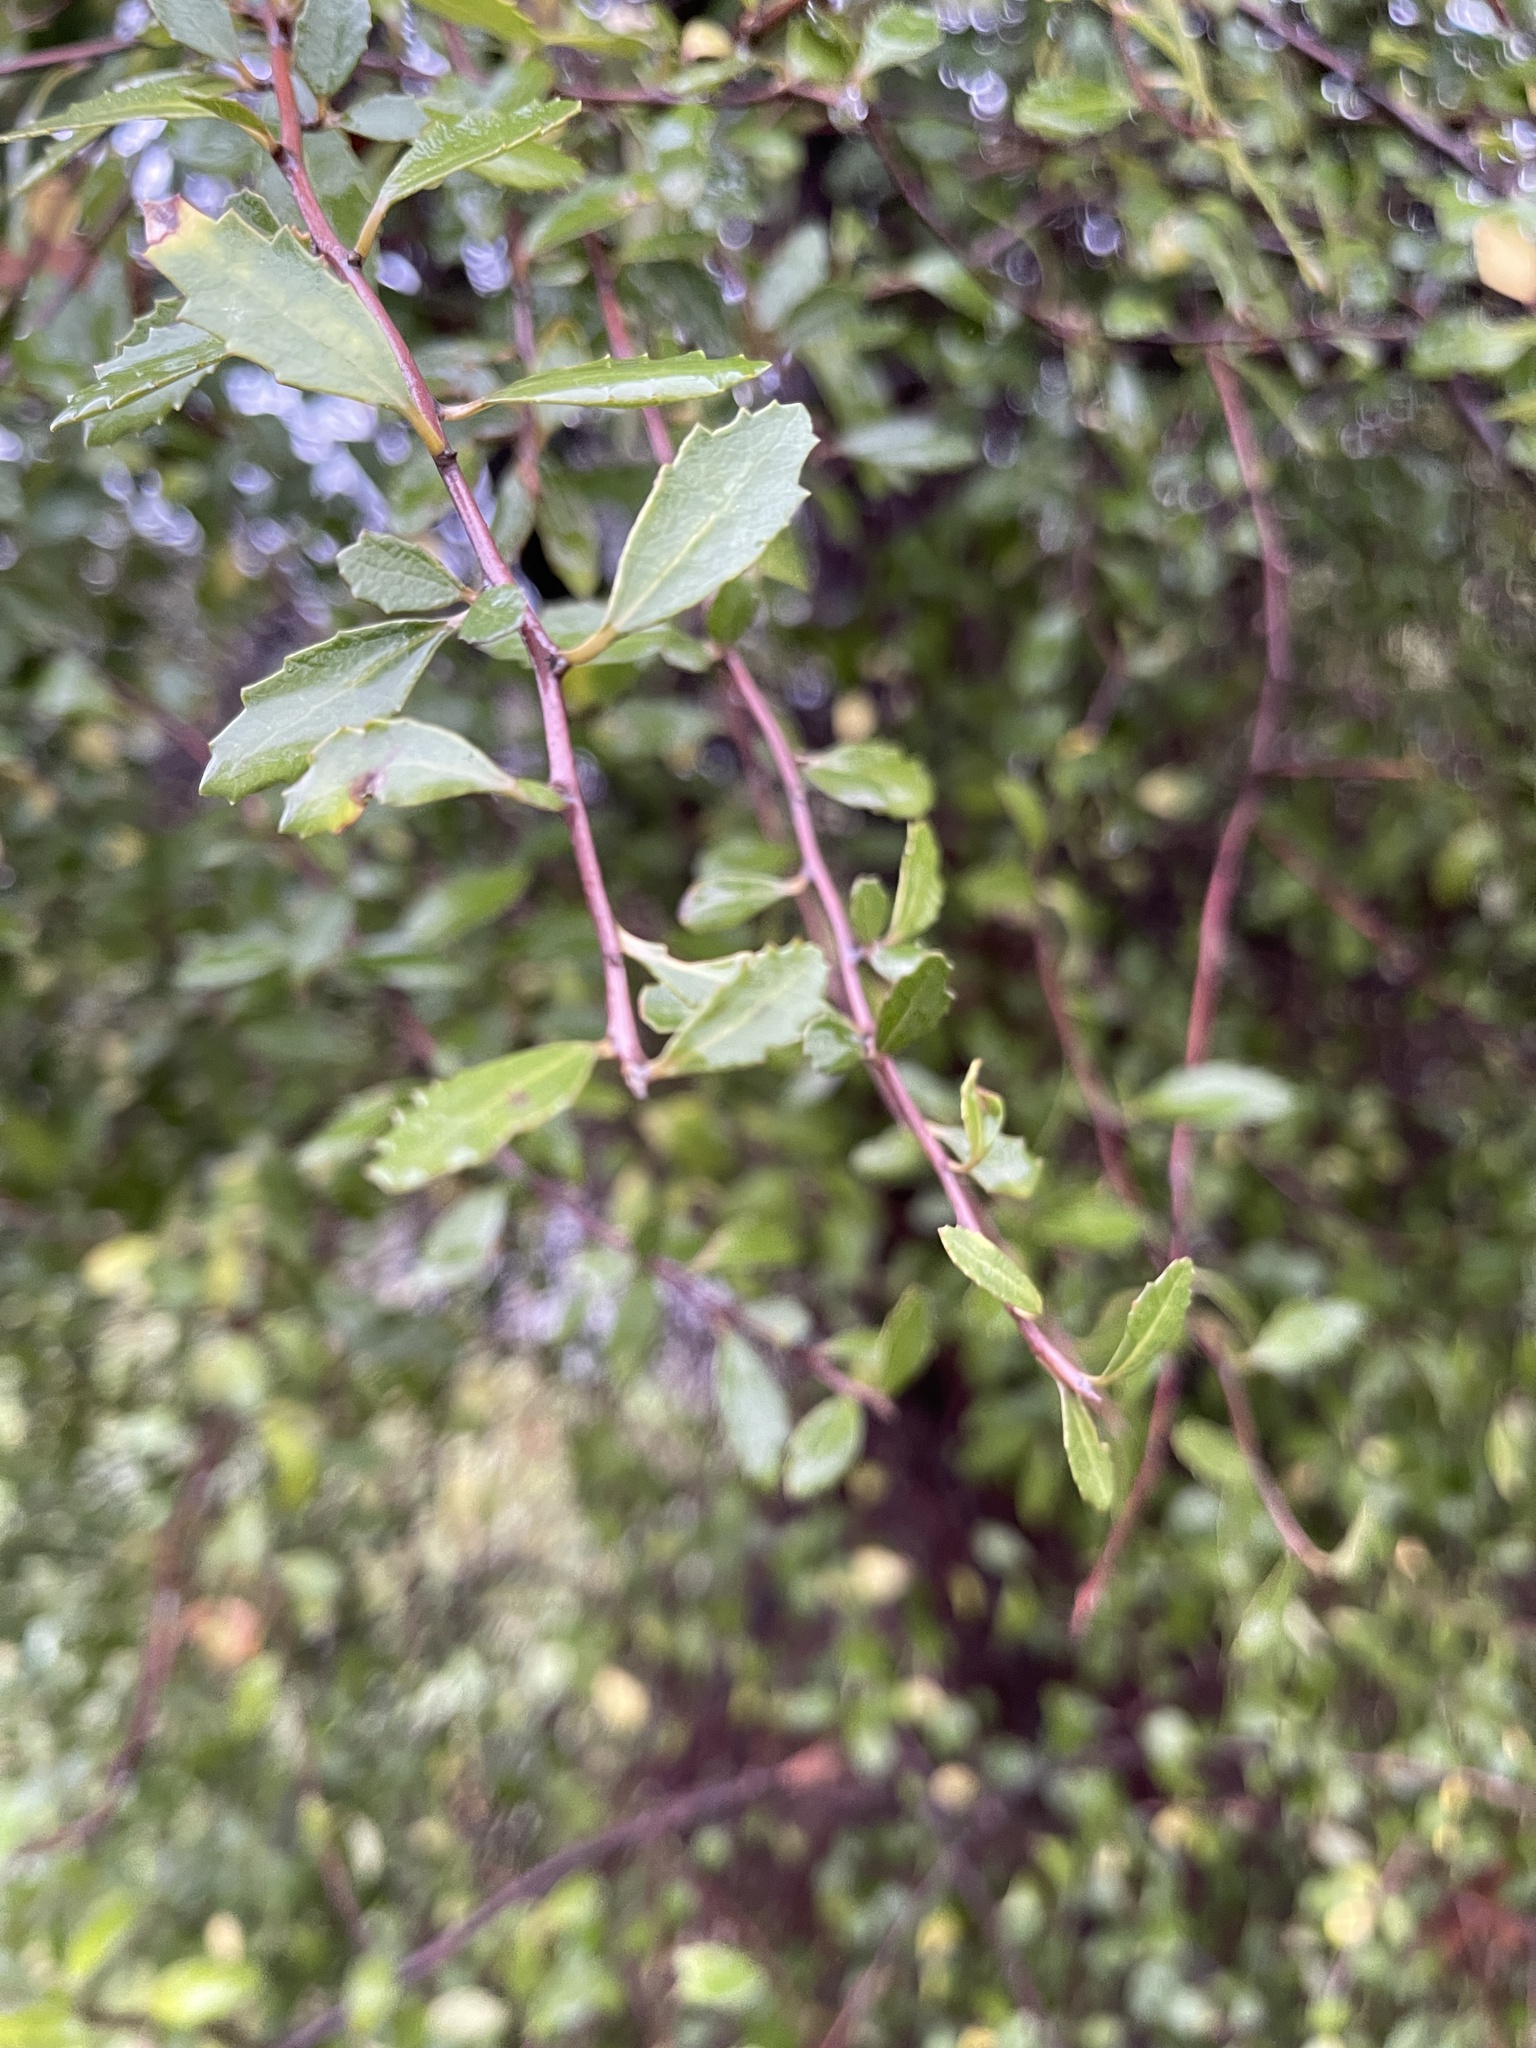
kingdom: Plantae
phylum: Tracheophyta
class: Magnoliopsida
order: Malvales
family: Malvaceae
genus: Hoheria
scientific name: Hoheria angustifolia
